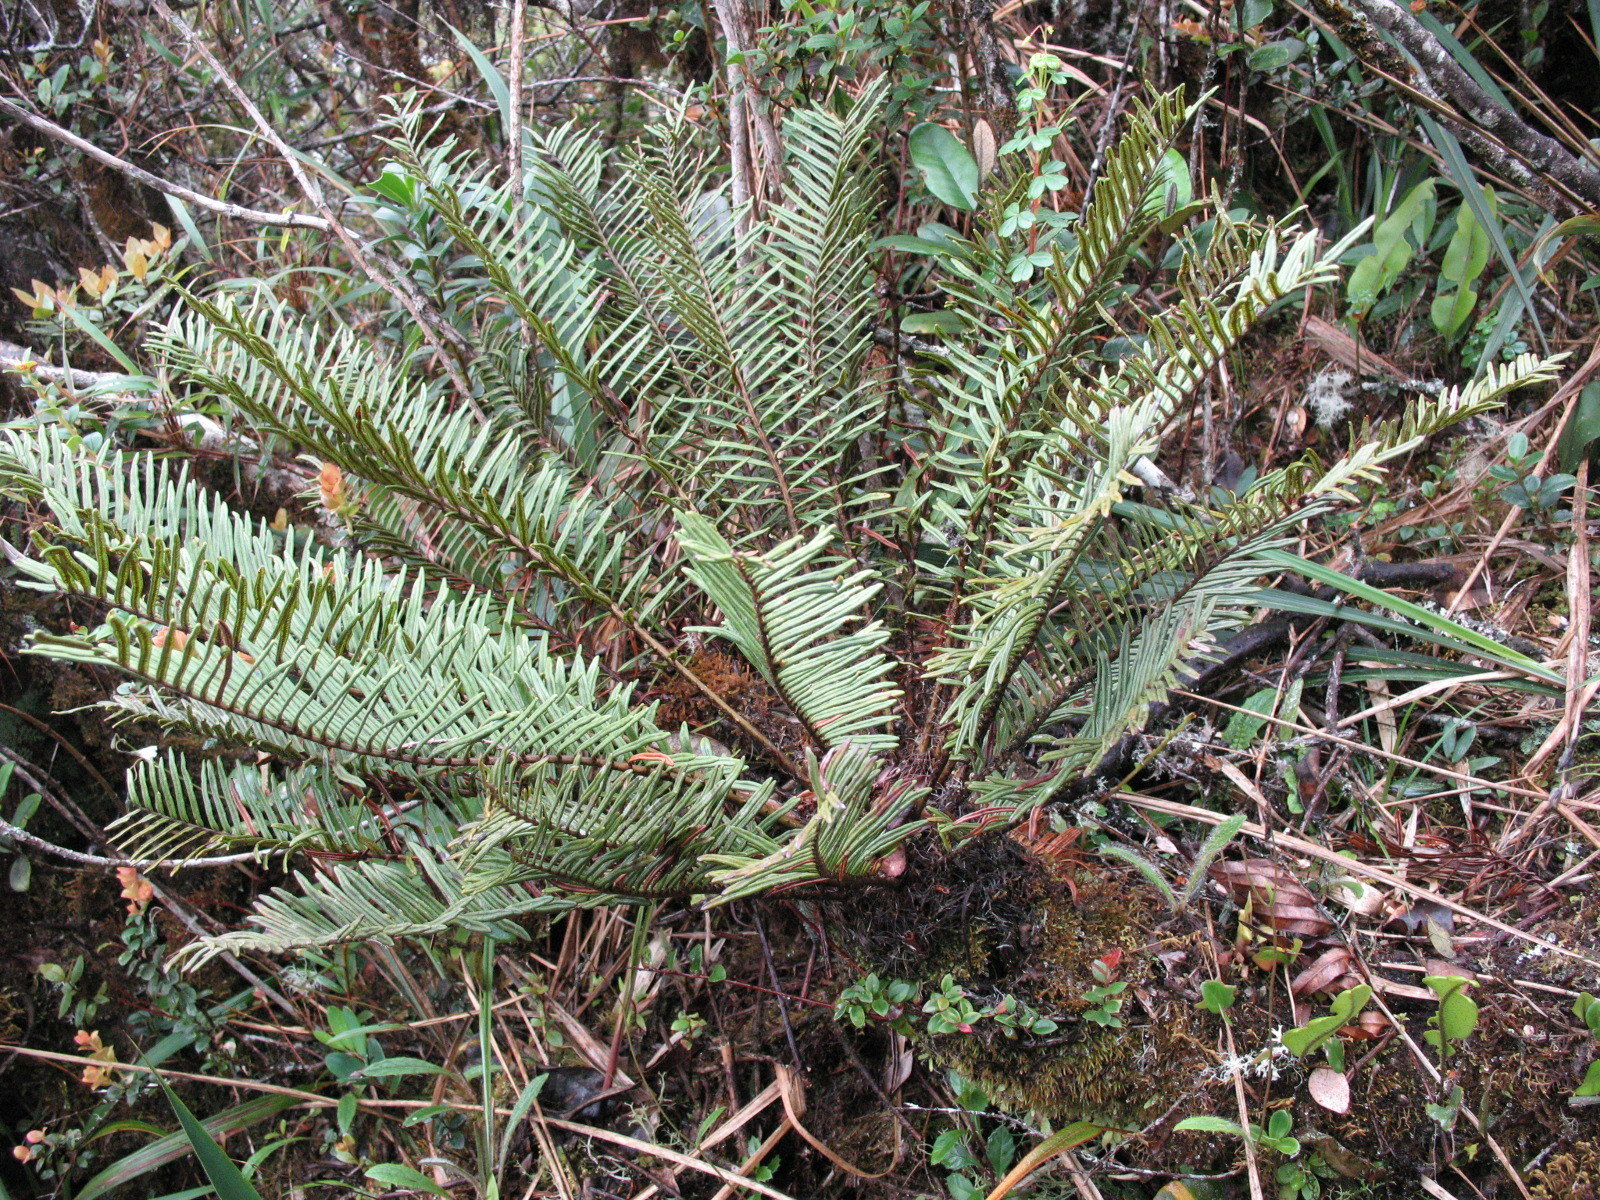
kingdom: Plantae
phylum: Tracheophyta
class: Polypodiopsida
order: Polypodiales
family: Blechnaceae
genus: Lomariocycas
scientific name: Lomariocycas aurata
